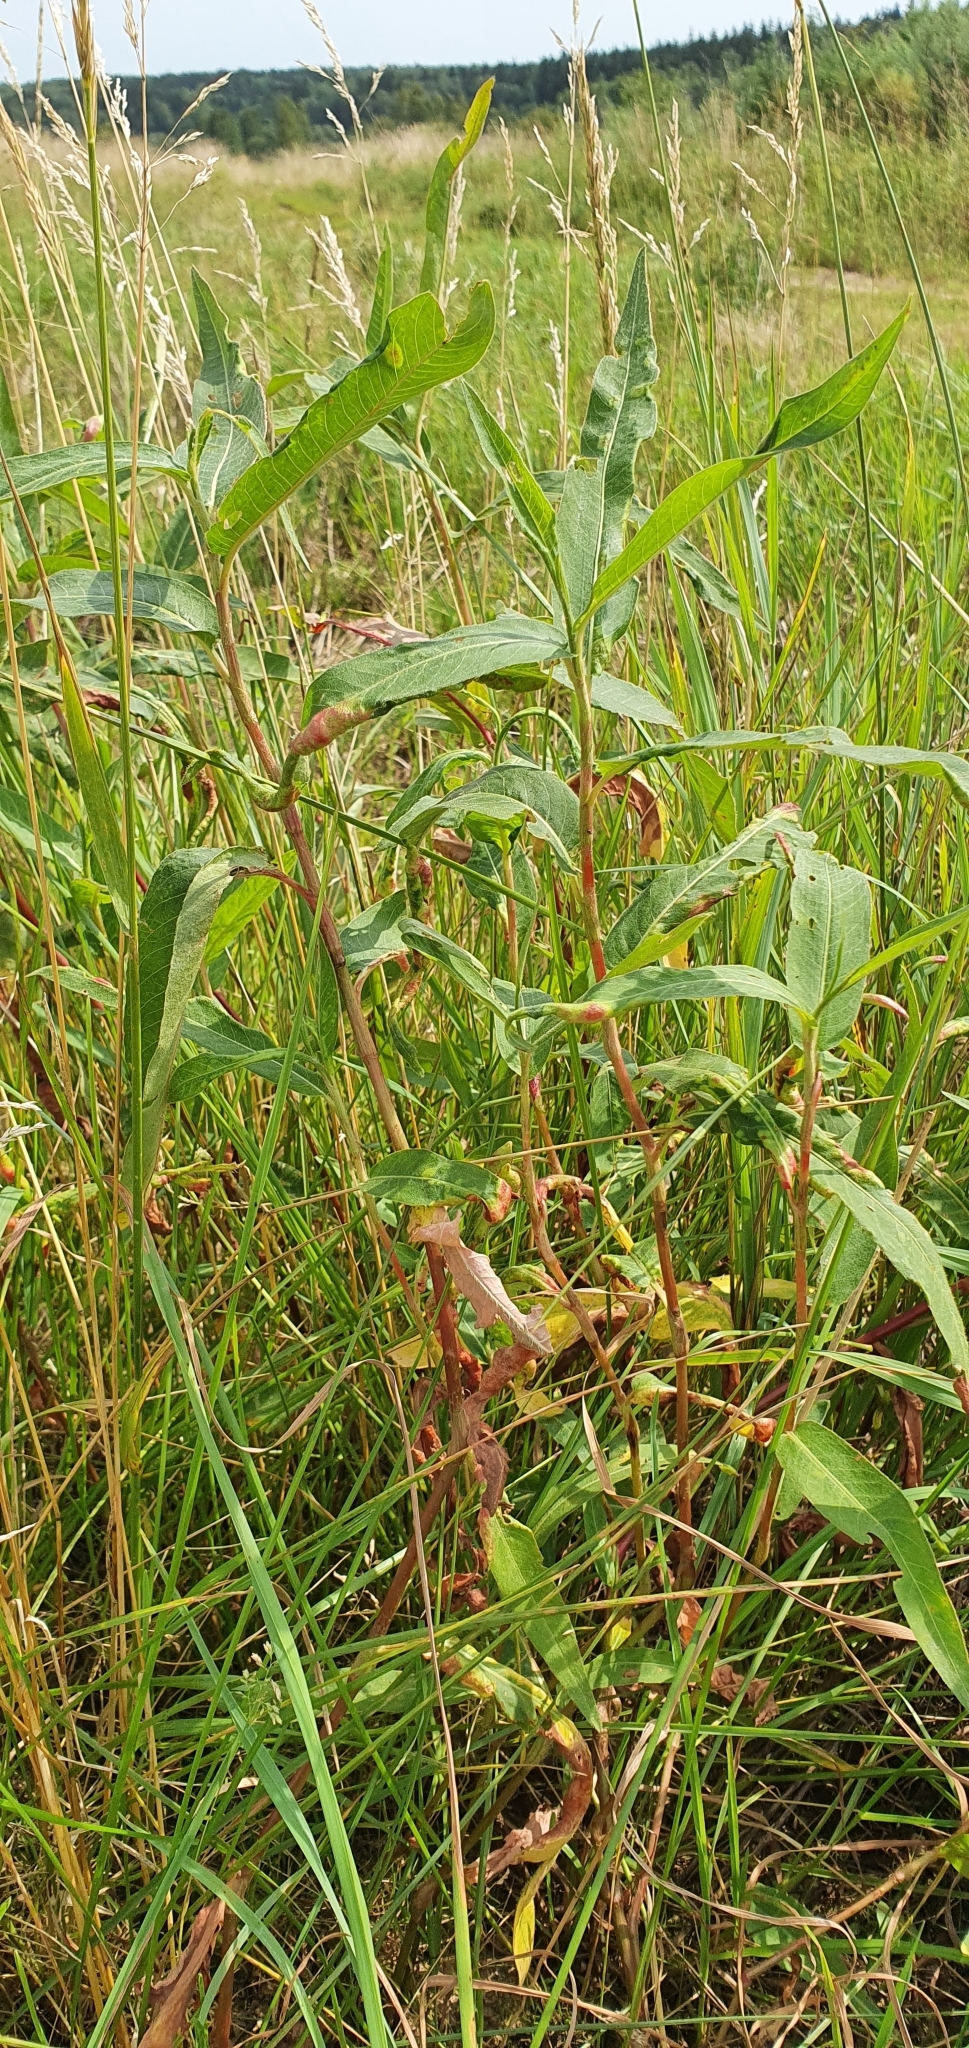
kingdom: Plantae
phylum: Tracheophyta
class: Magnoliopsida
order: Caryophyllales
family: Polygonaceae
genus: Persicaria
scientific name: Persicaria amphibia
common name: Amphibious bistort
